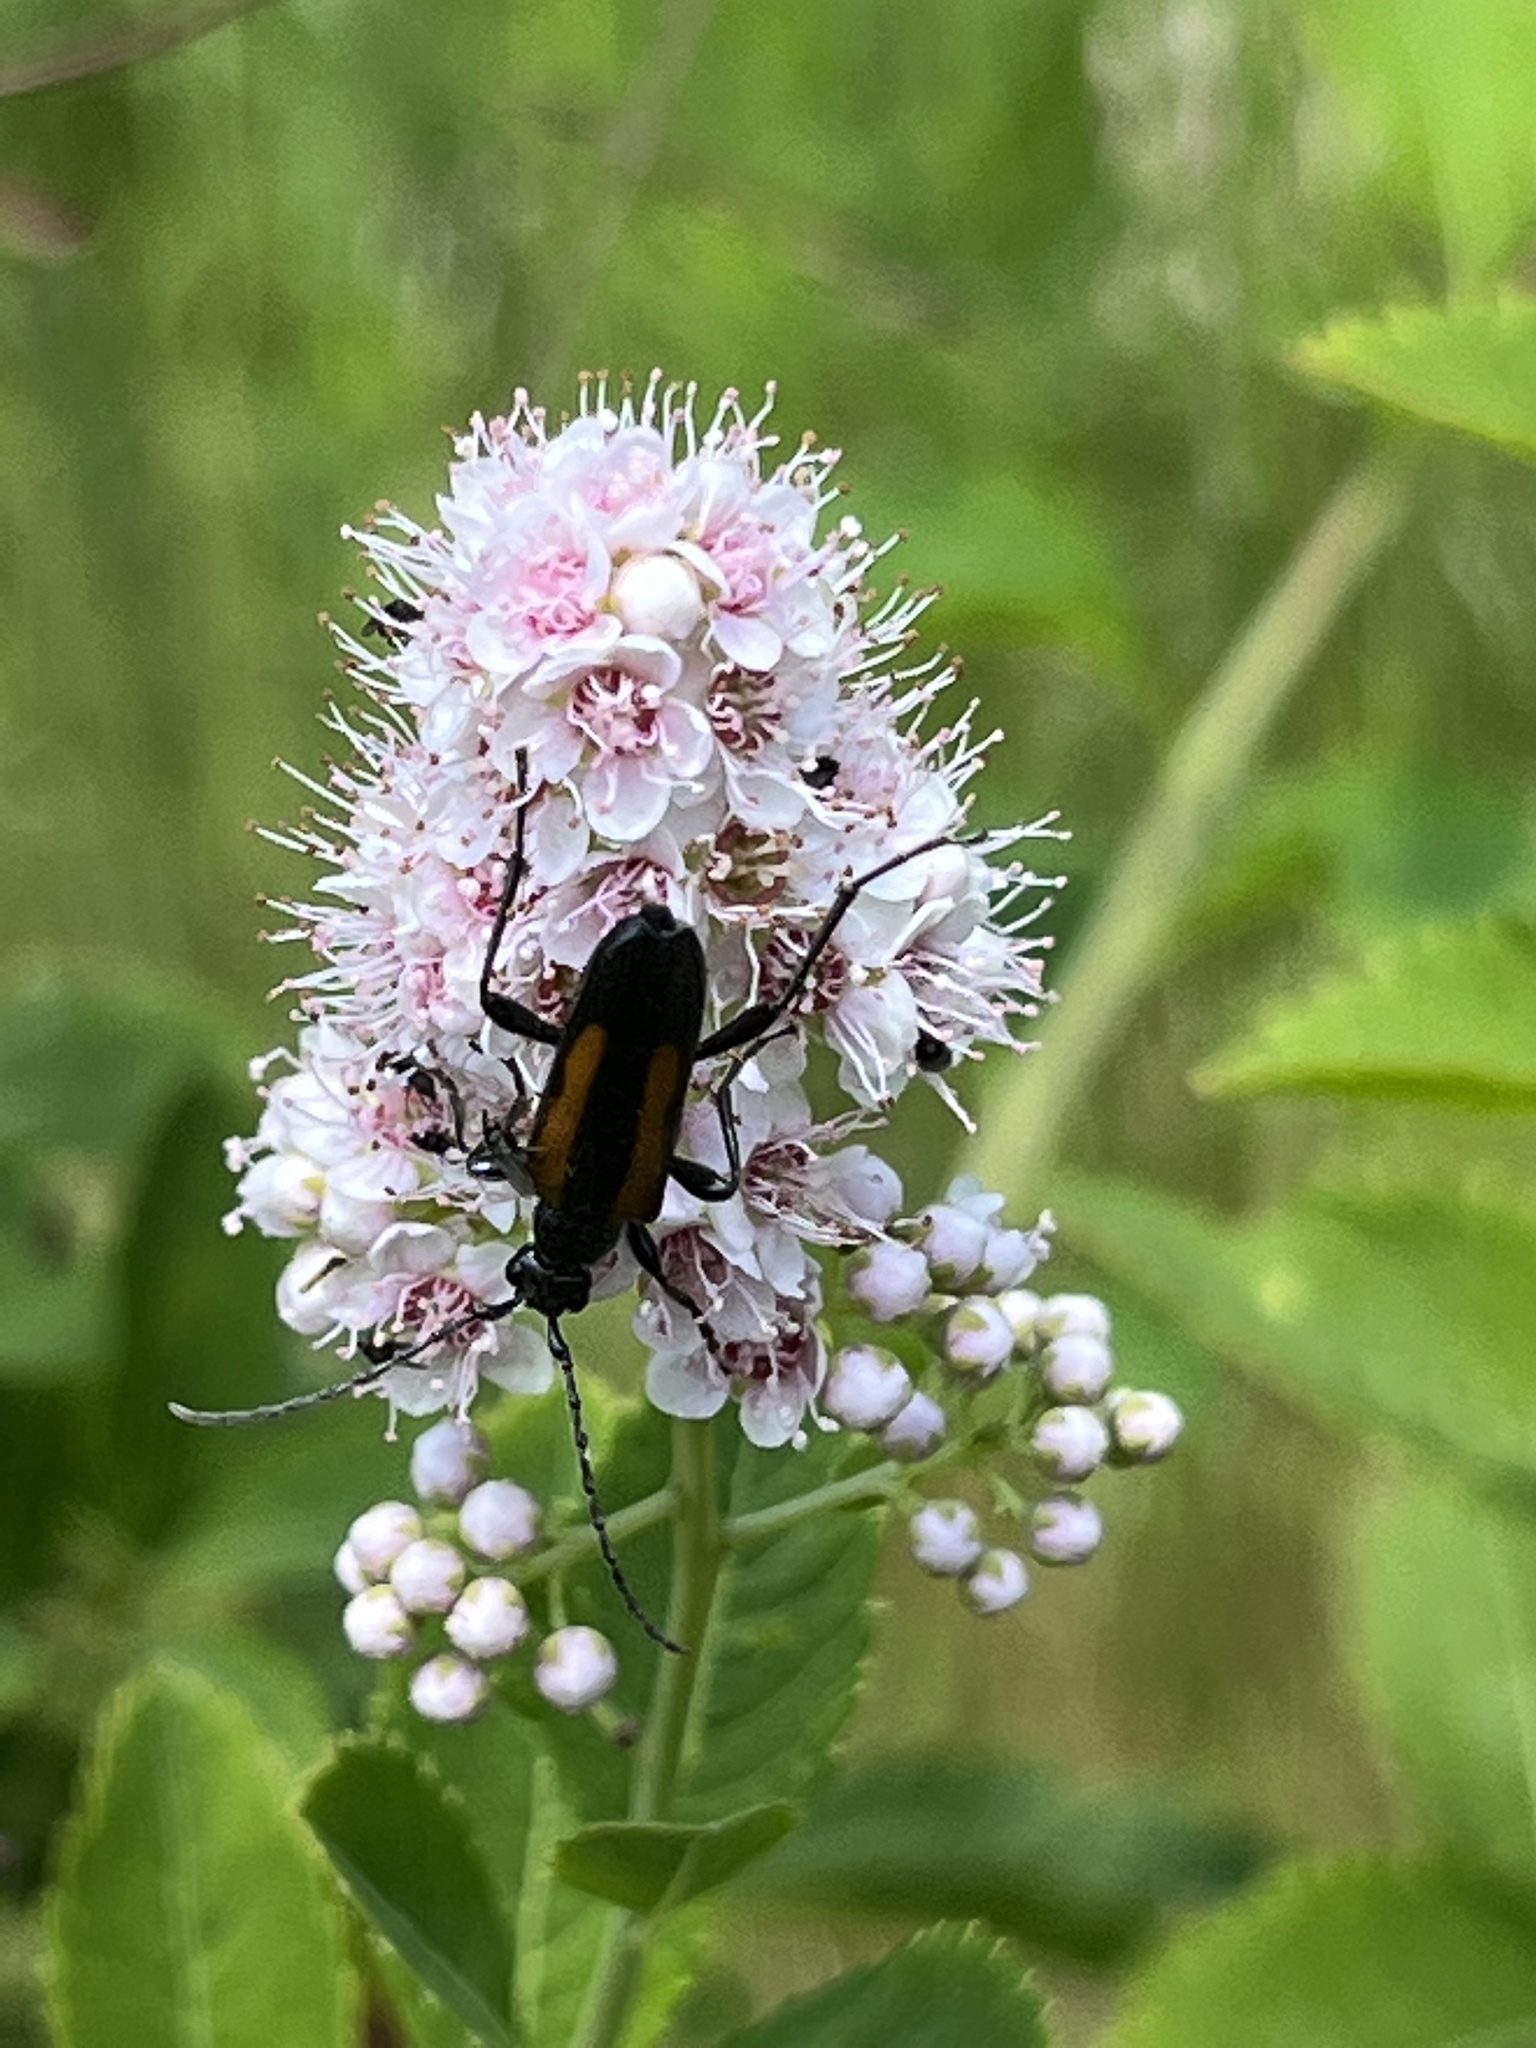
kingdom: Animalia
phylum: Arthropoda
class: Insecta
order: Coleoptera
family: Cerambycidae
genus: Strangalepta
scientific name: Strangalepta abbreviata
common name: Strangalepta flower longhorn beetle
